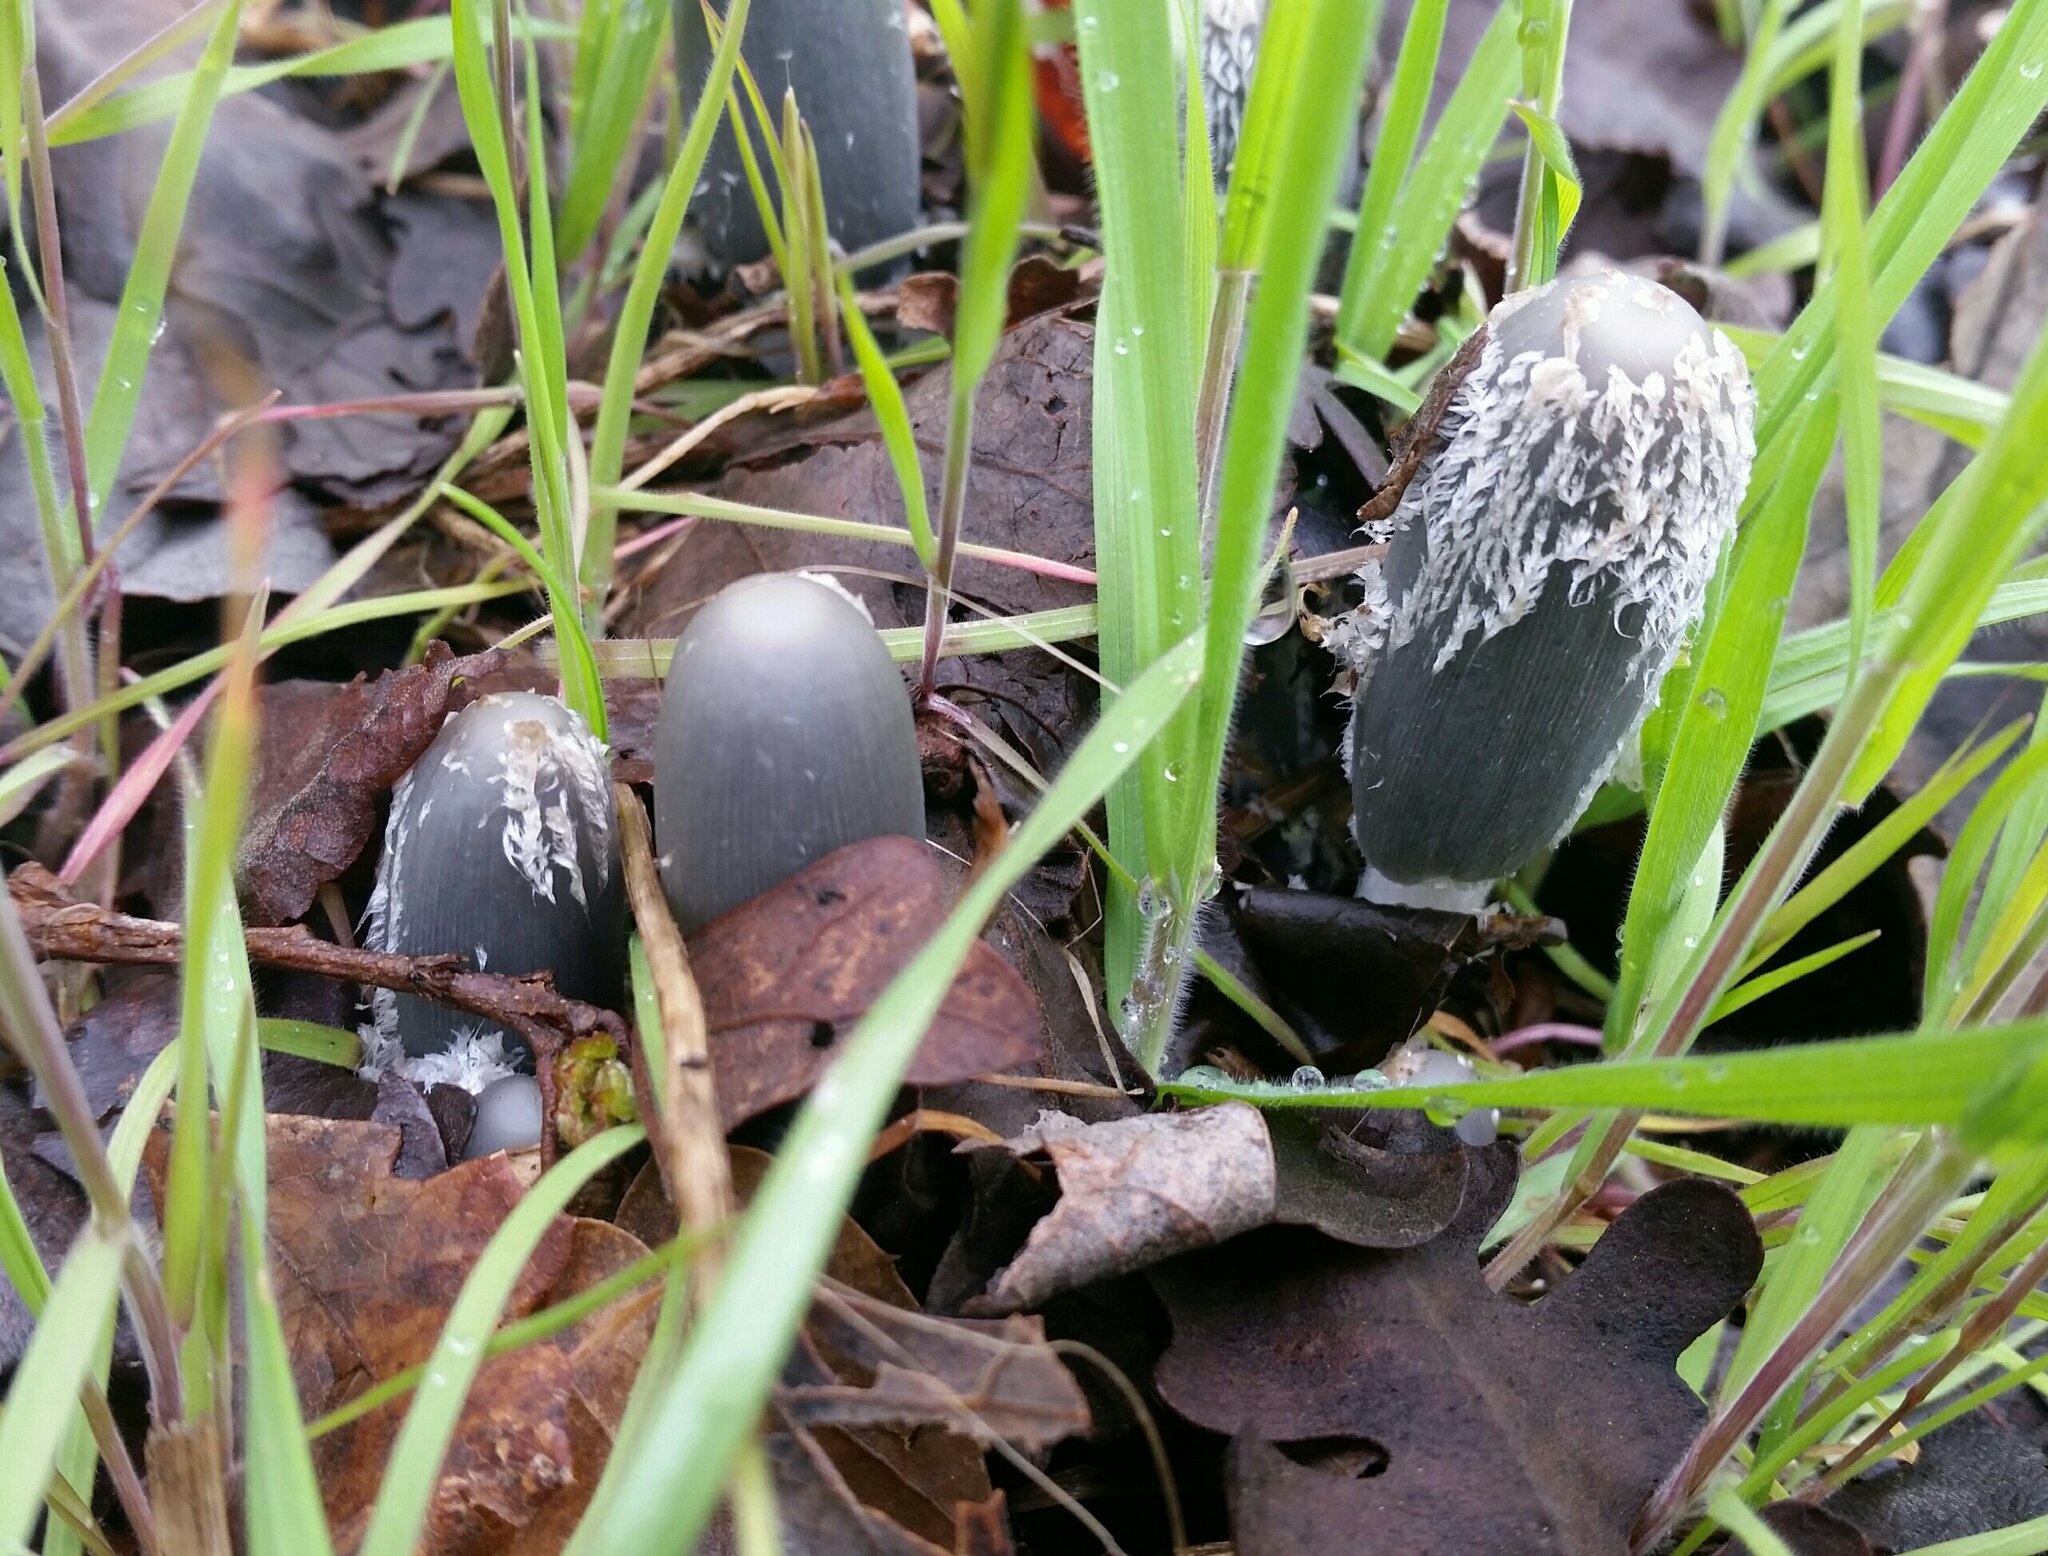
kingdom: Fungi
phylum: Basidiomycota
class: Agaricomycetes
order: Agaricales
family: Psathyrellaceae
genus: Coprinopsis
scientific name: Coprinopsis lagopus
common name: Hare'sfoot inkcap
